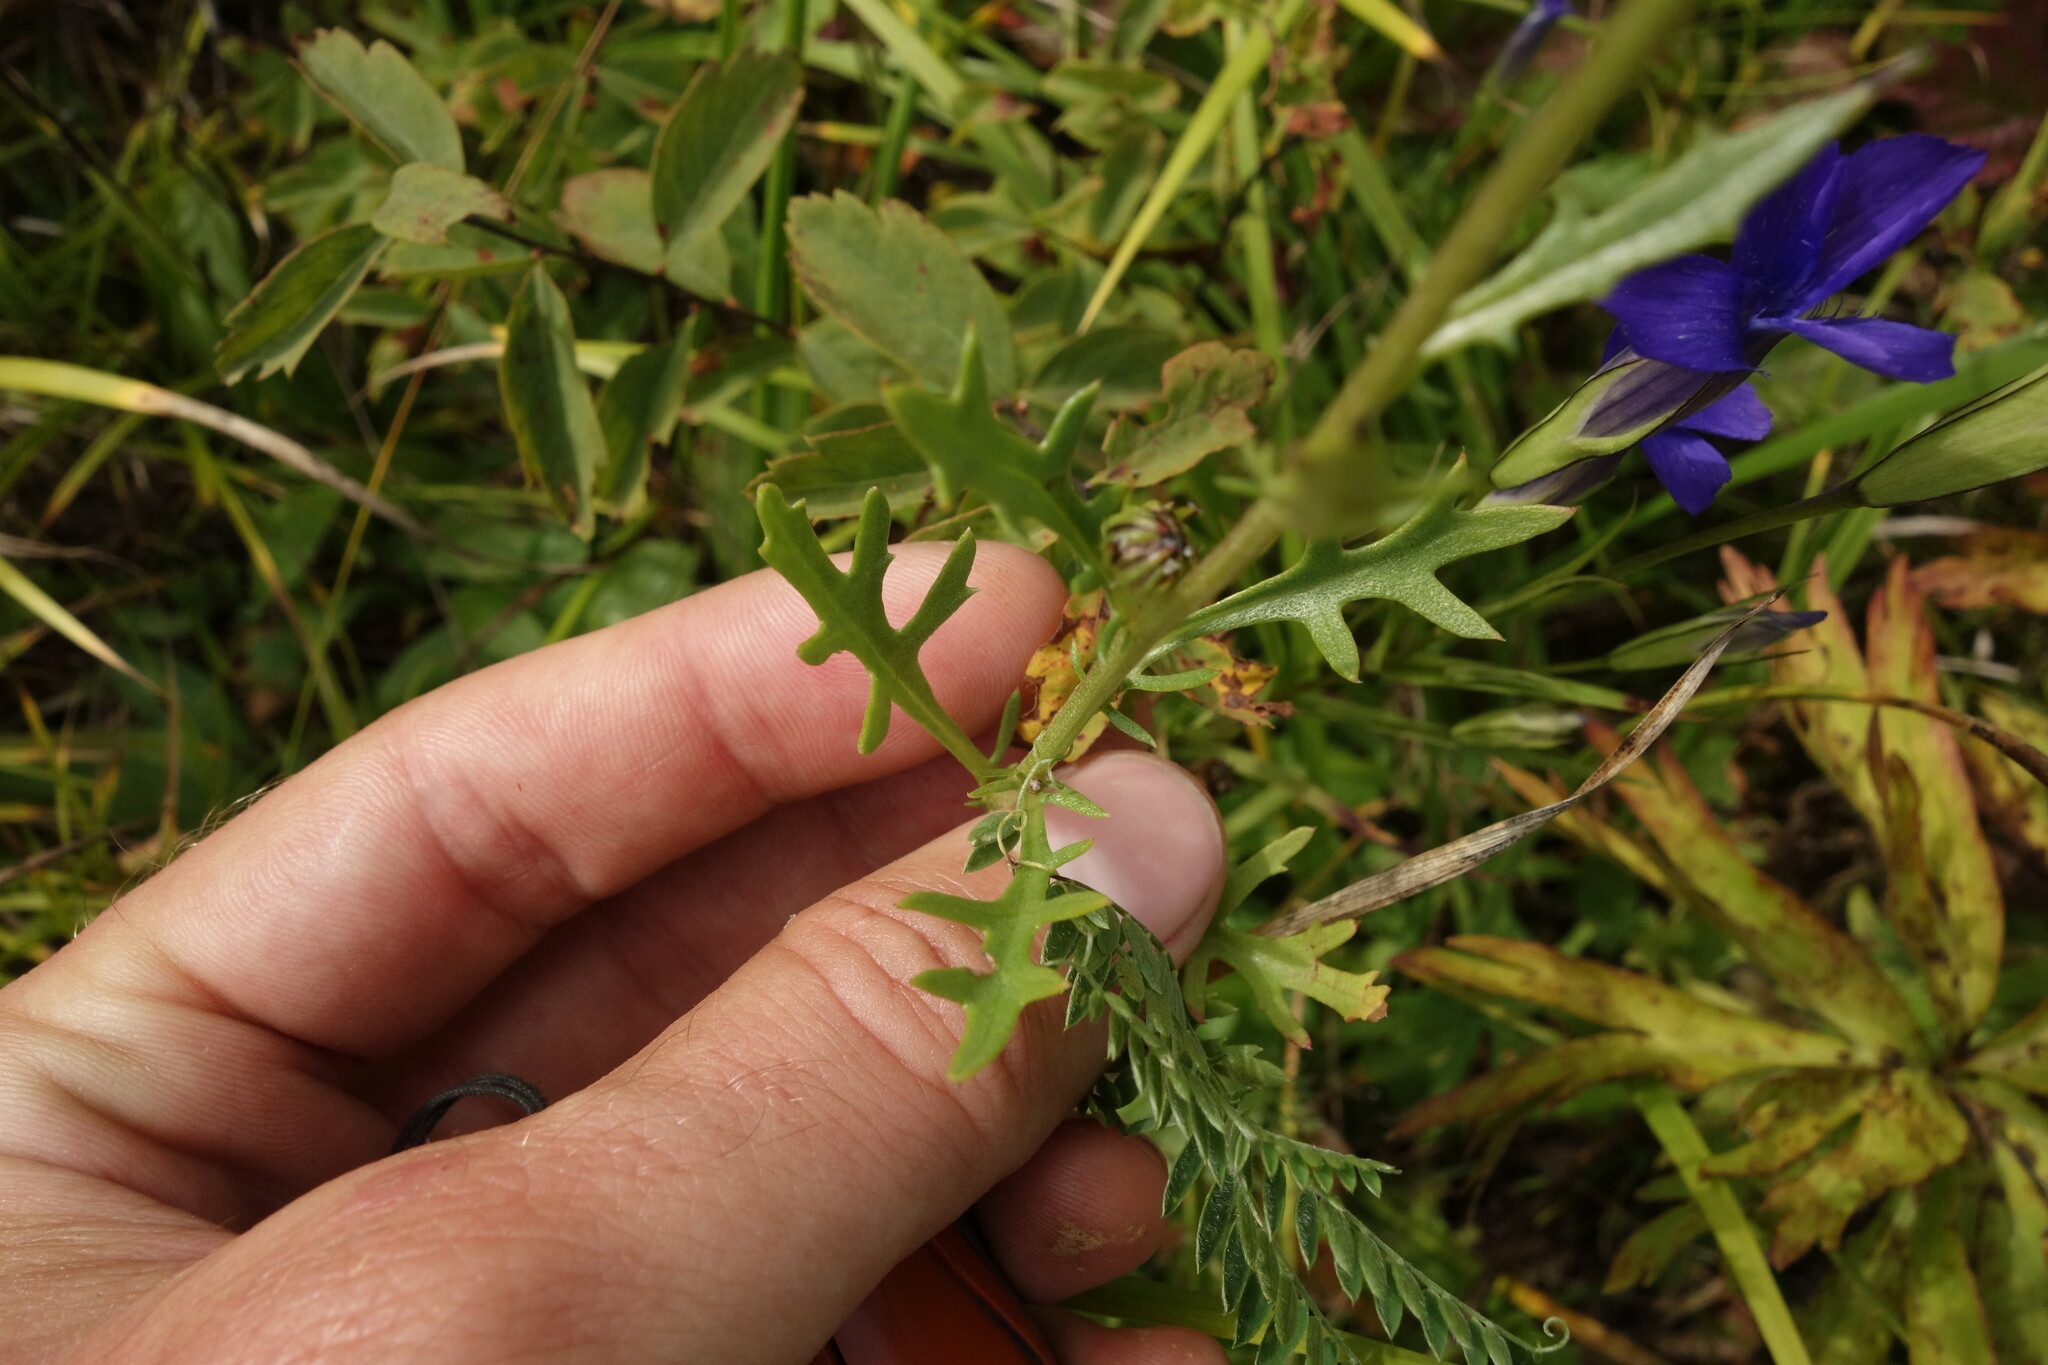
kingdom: Plantae
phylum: Tracheophyta
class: Magnoliopsida
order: Asterales
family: Asteraceae
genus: Chrysanthemum
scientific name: Chrysanthemum zawadzkii
